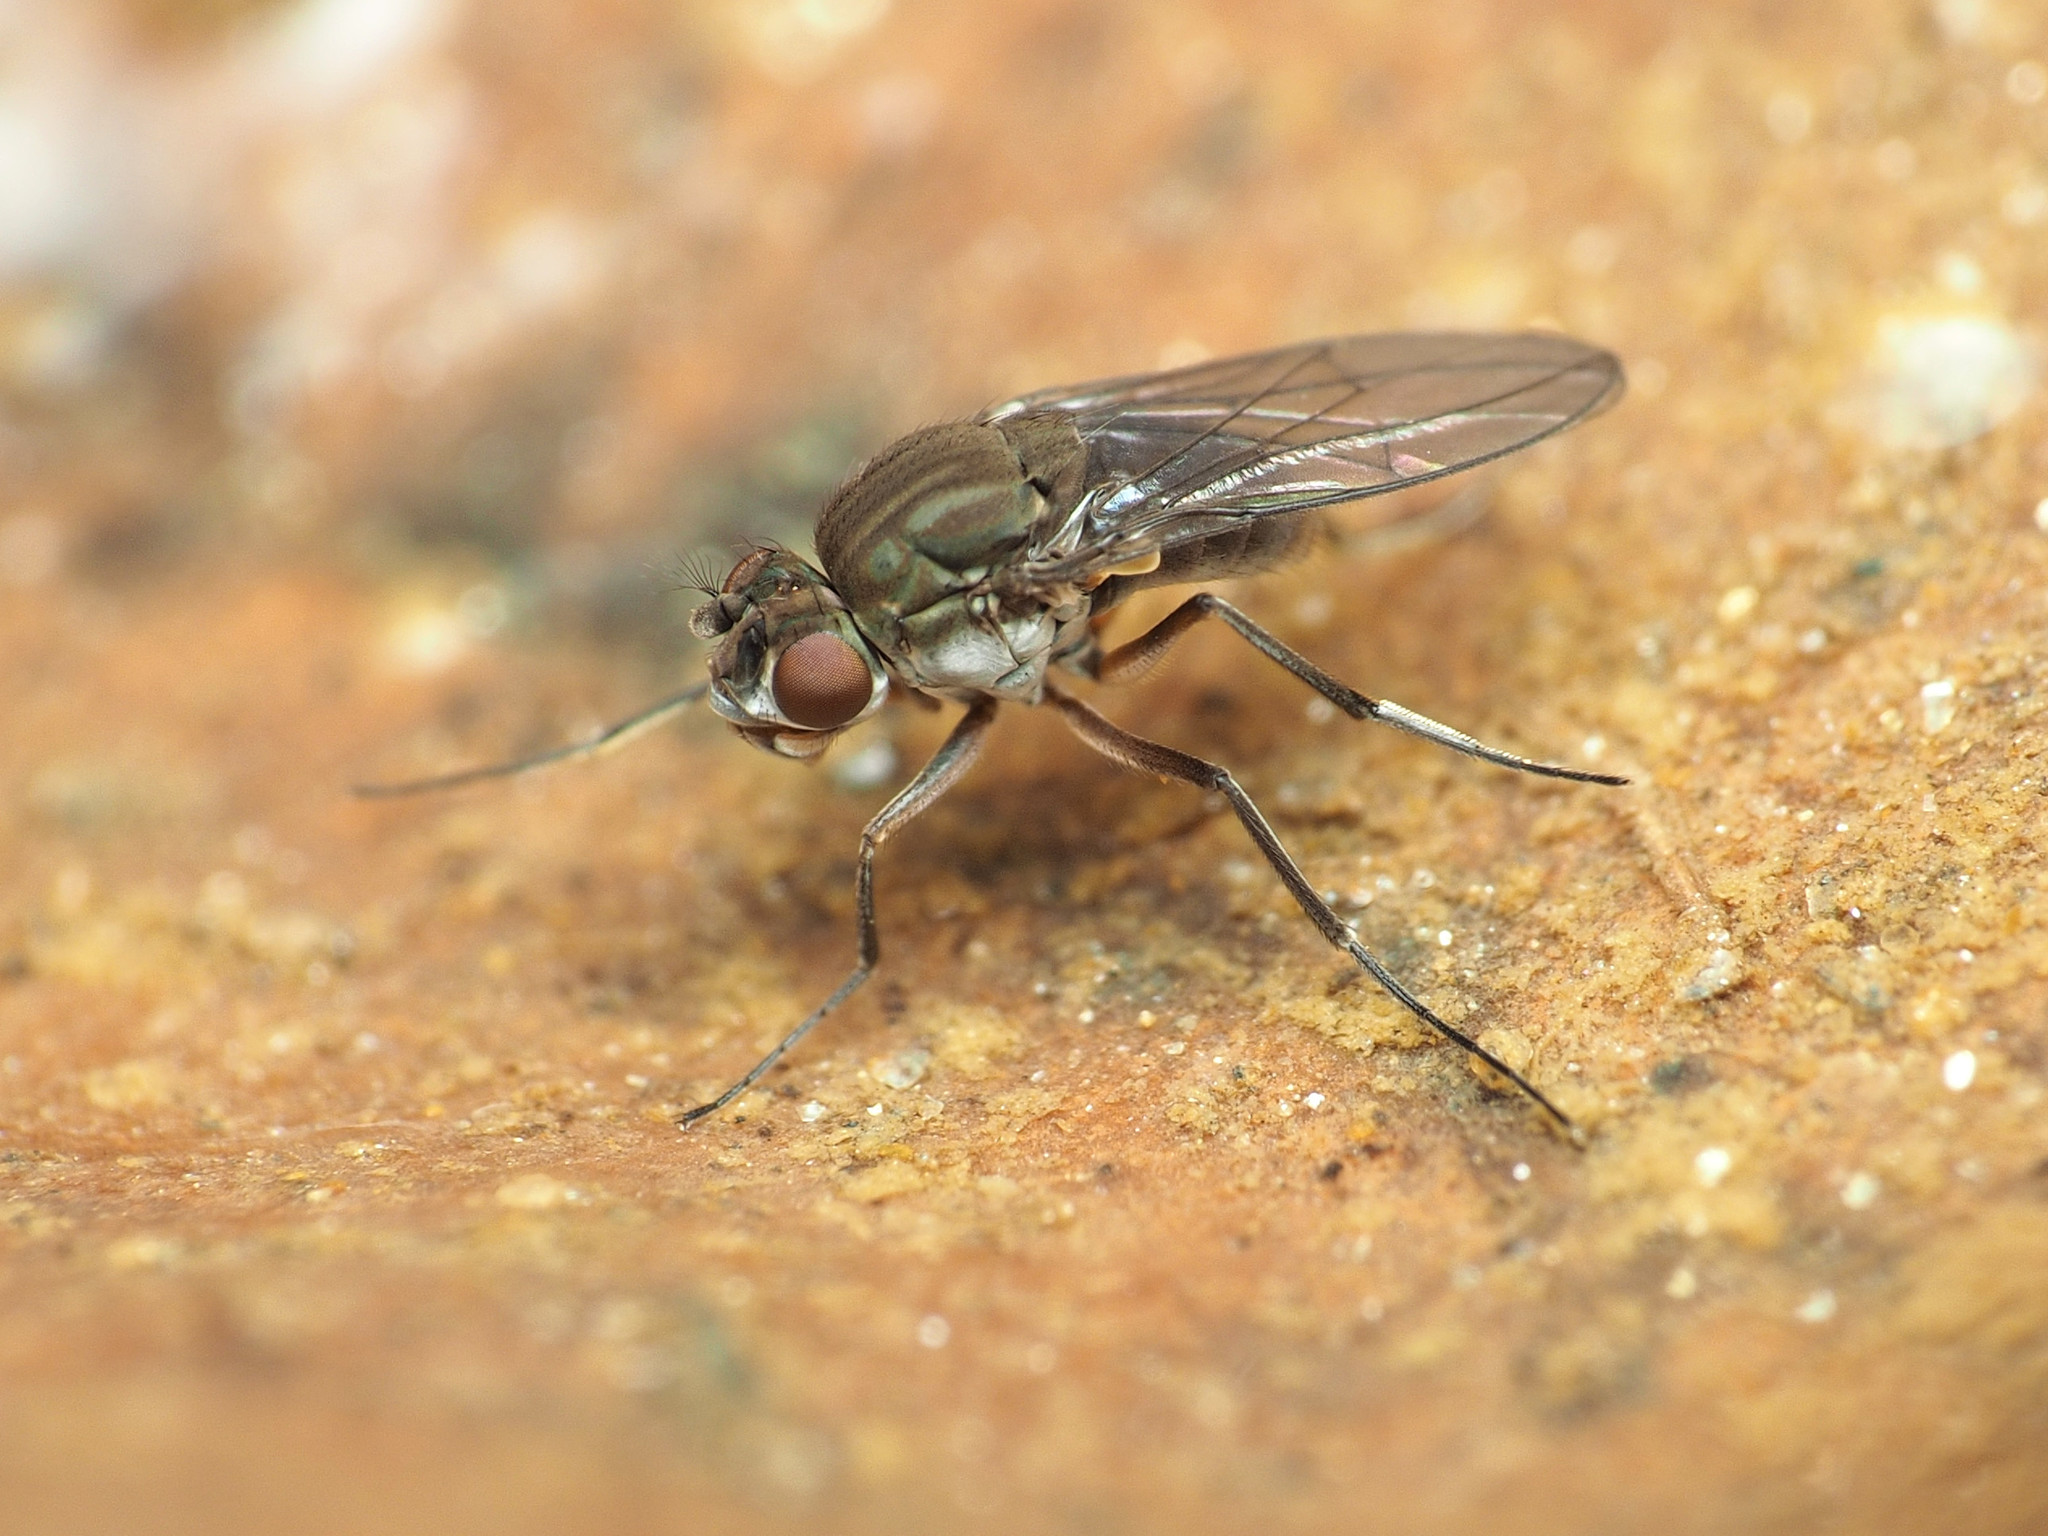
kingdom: Animalia
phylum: Arthropoda
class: Insecta
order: Diptera
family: Ephydridae
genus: Brachydeutera
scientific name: Brachydeutera argentata
